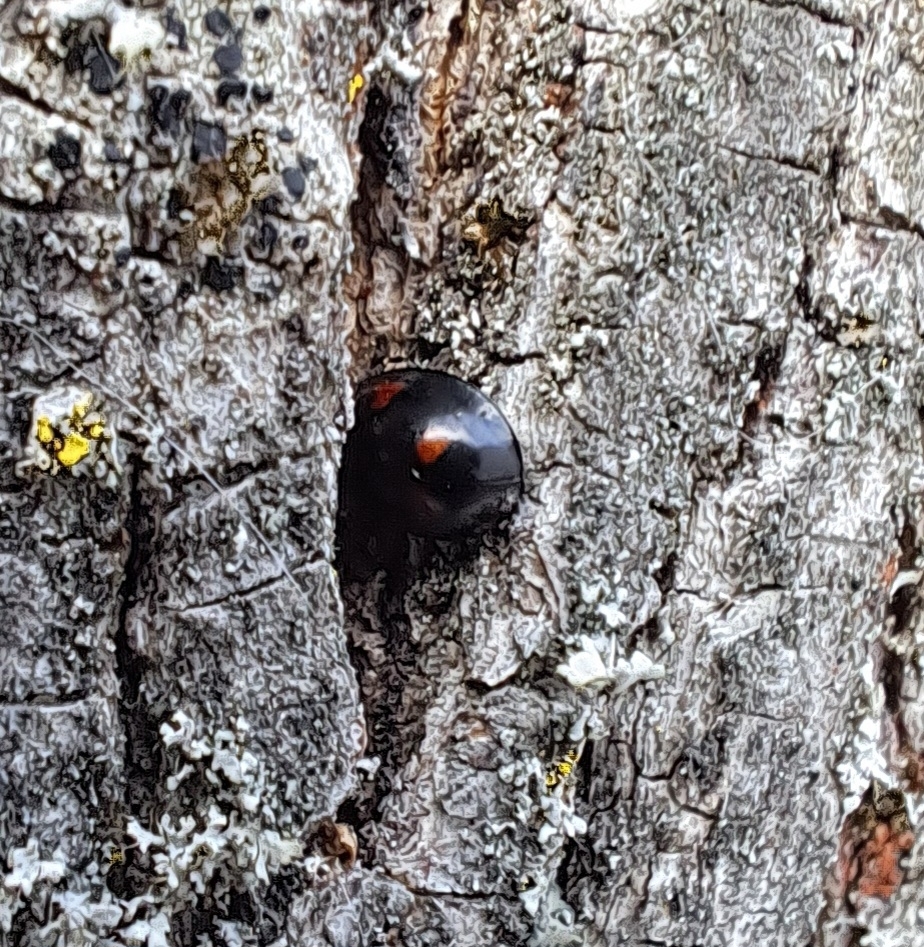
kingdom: Animalia
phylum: Arthropoda
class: Insecta
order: Coleoptera
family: Coccinellidae
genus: Brumus
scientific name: Brumus quadripustulatus
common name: Ladybird beetle
